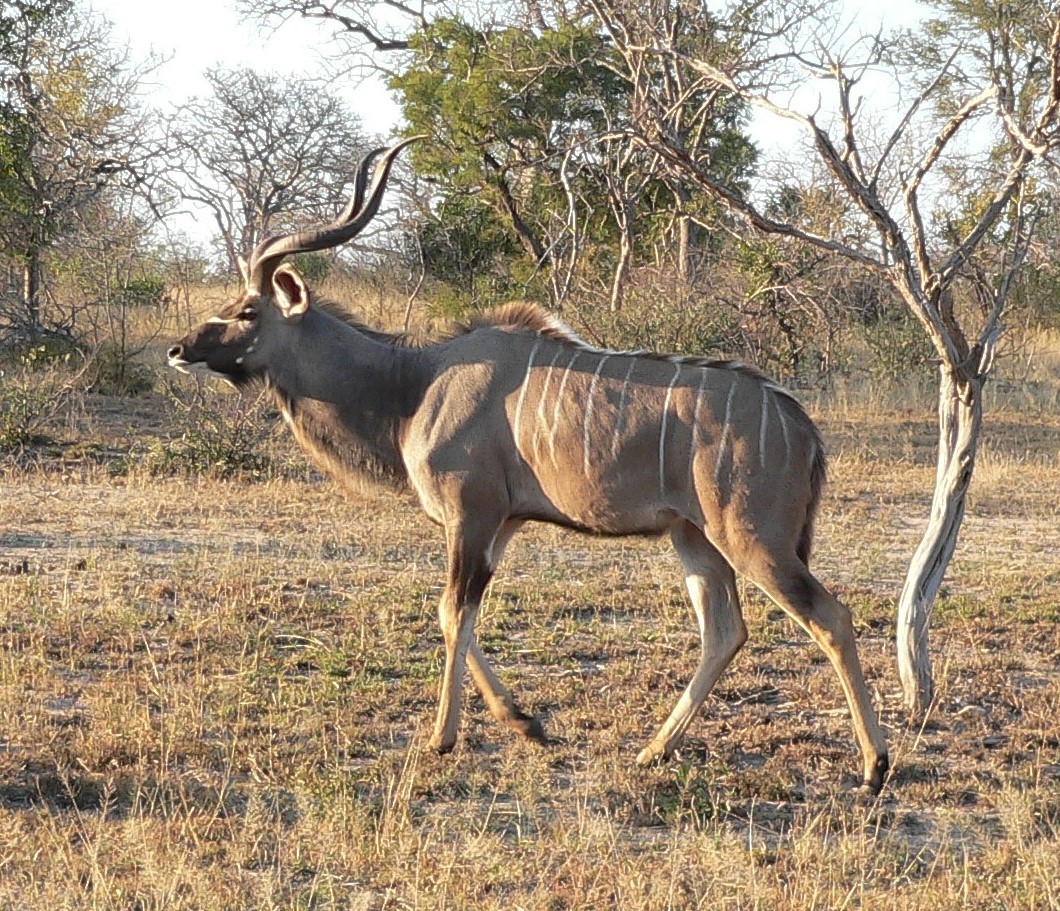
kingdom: Animalia
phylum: Chordata
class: Mammalia
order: Artiodactyla
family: Bovidae
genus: Tragelaphus
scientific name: Tragelaphus strepsiceros
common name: Greater kudu
